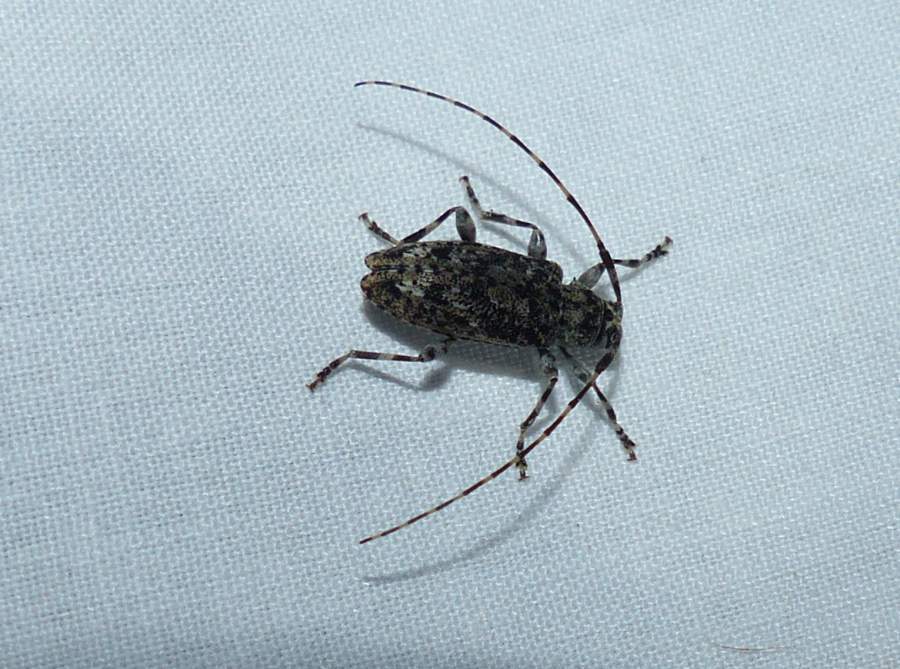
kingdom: Animalia
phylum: Arthropoda
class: Insecta
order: Coleoptera
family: Cerambycidae
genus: Astyleiopus
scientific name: Astyleiopus variegatus
